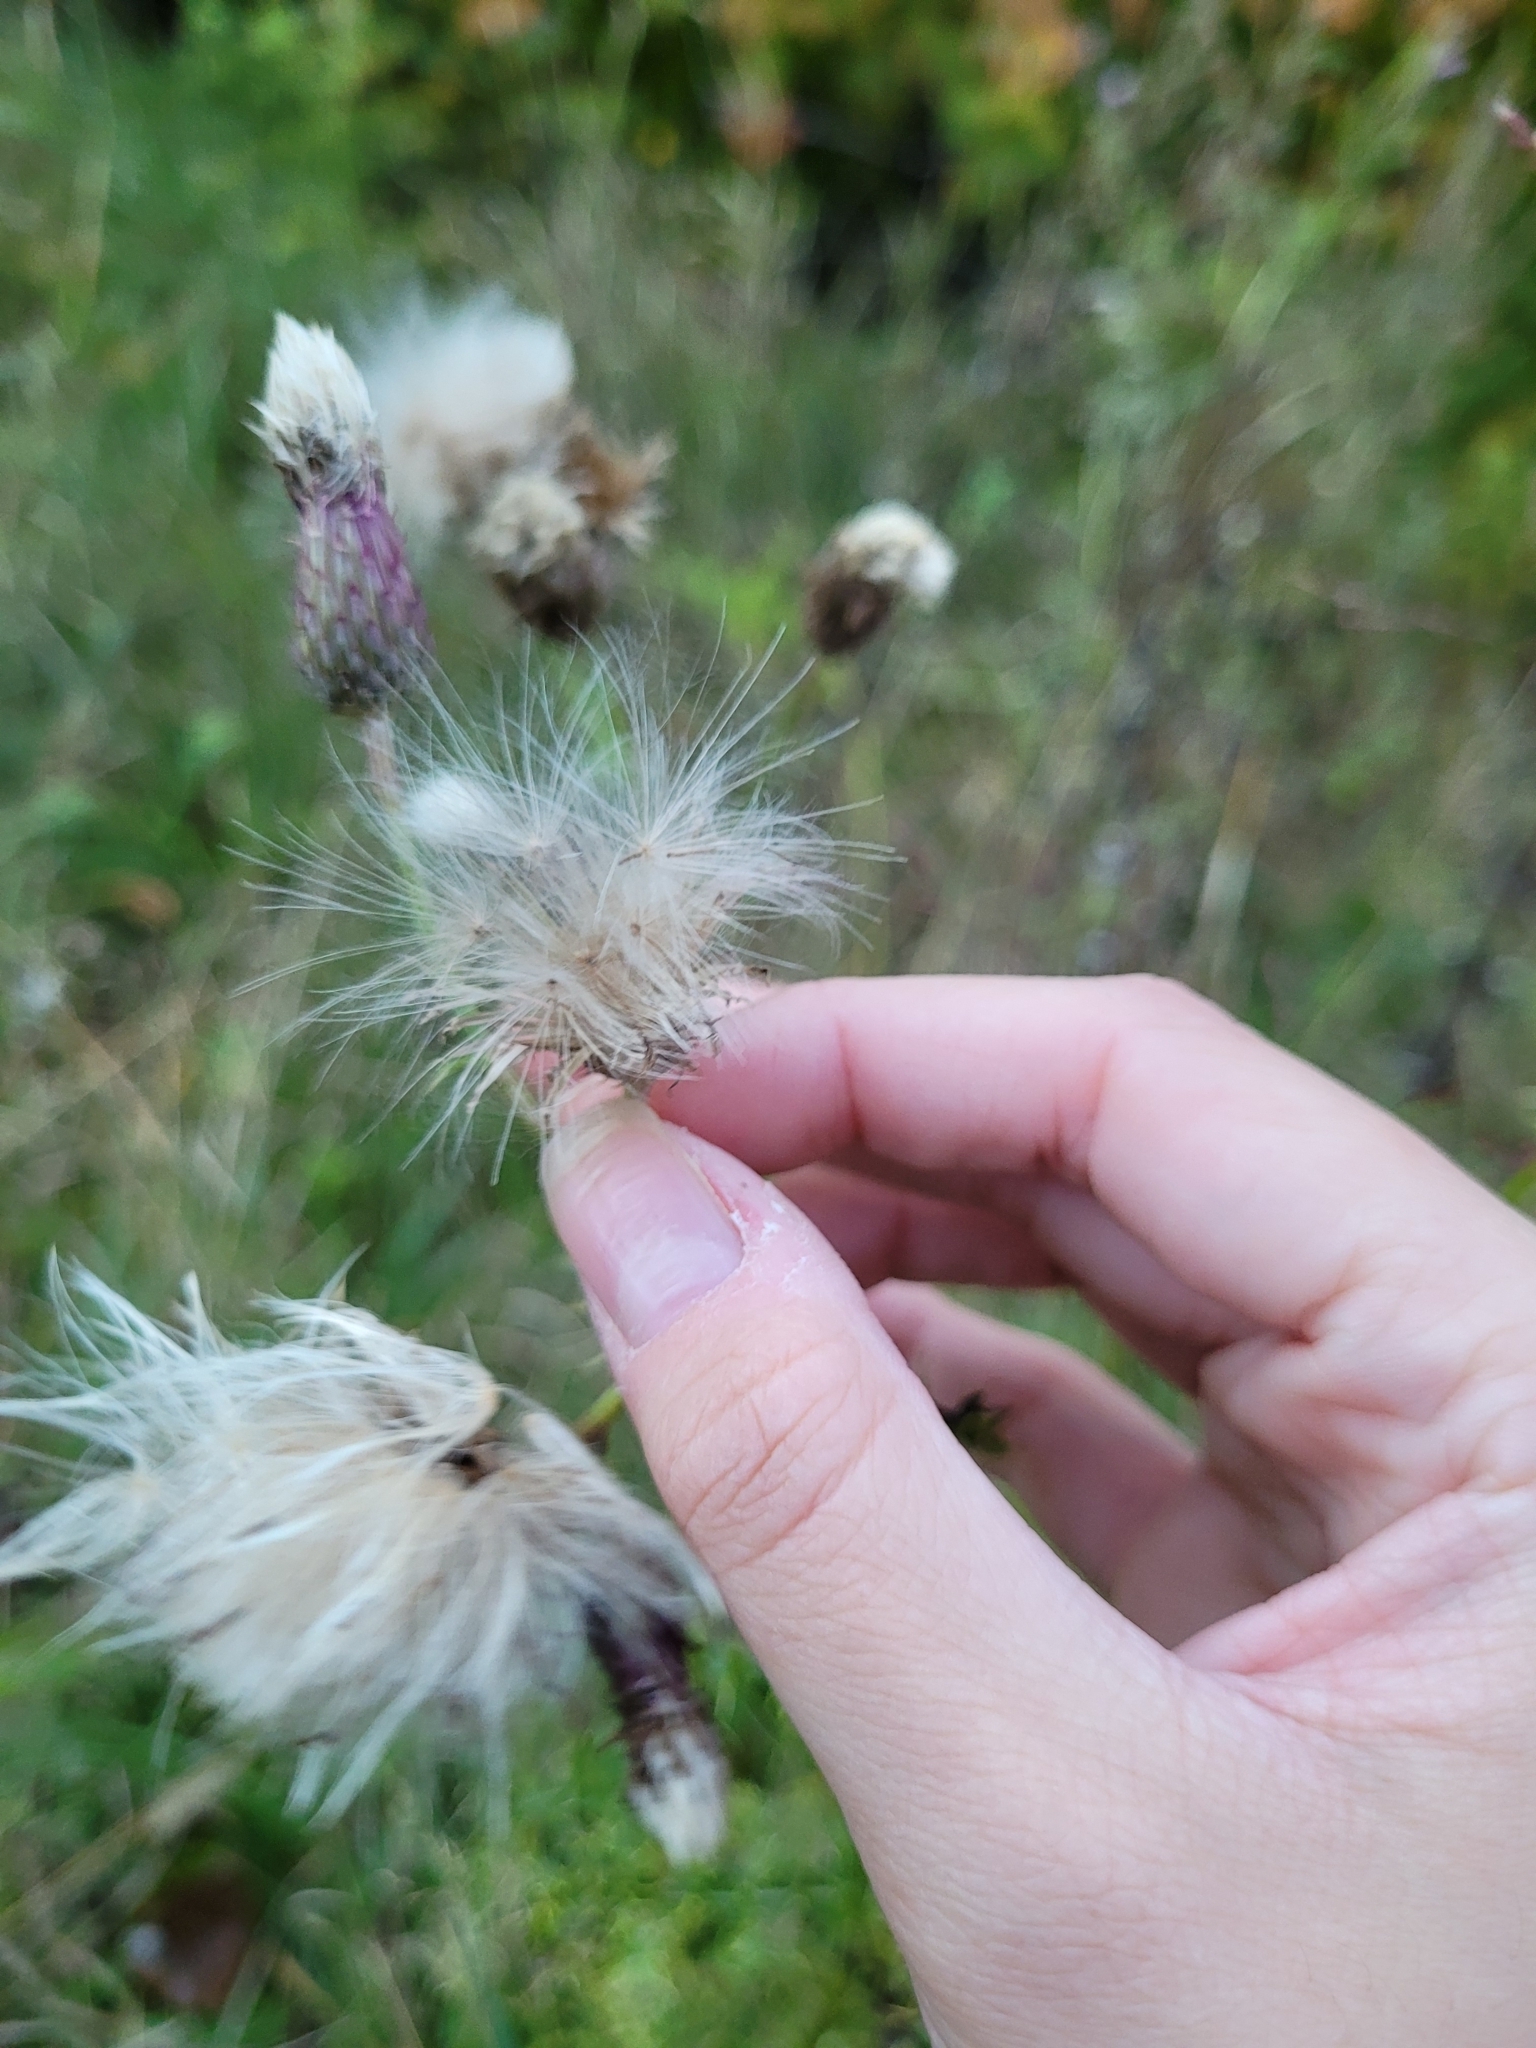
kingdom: Plantae
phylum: Tracheophyta
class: Magnoliopsida
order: Asterales
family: Asteraceae
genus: Cirsium
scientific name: Cirsium arvense
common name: Creeping thistle
